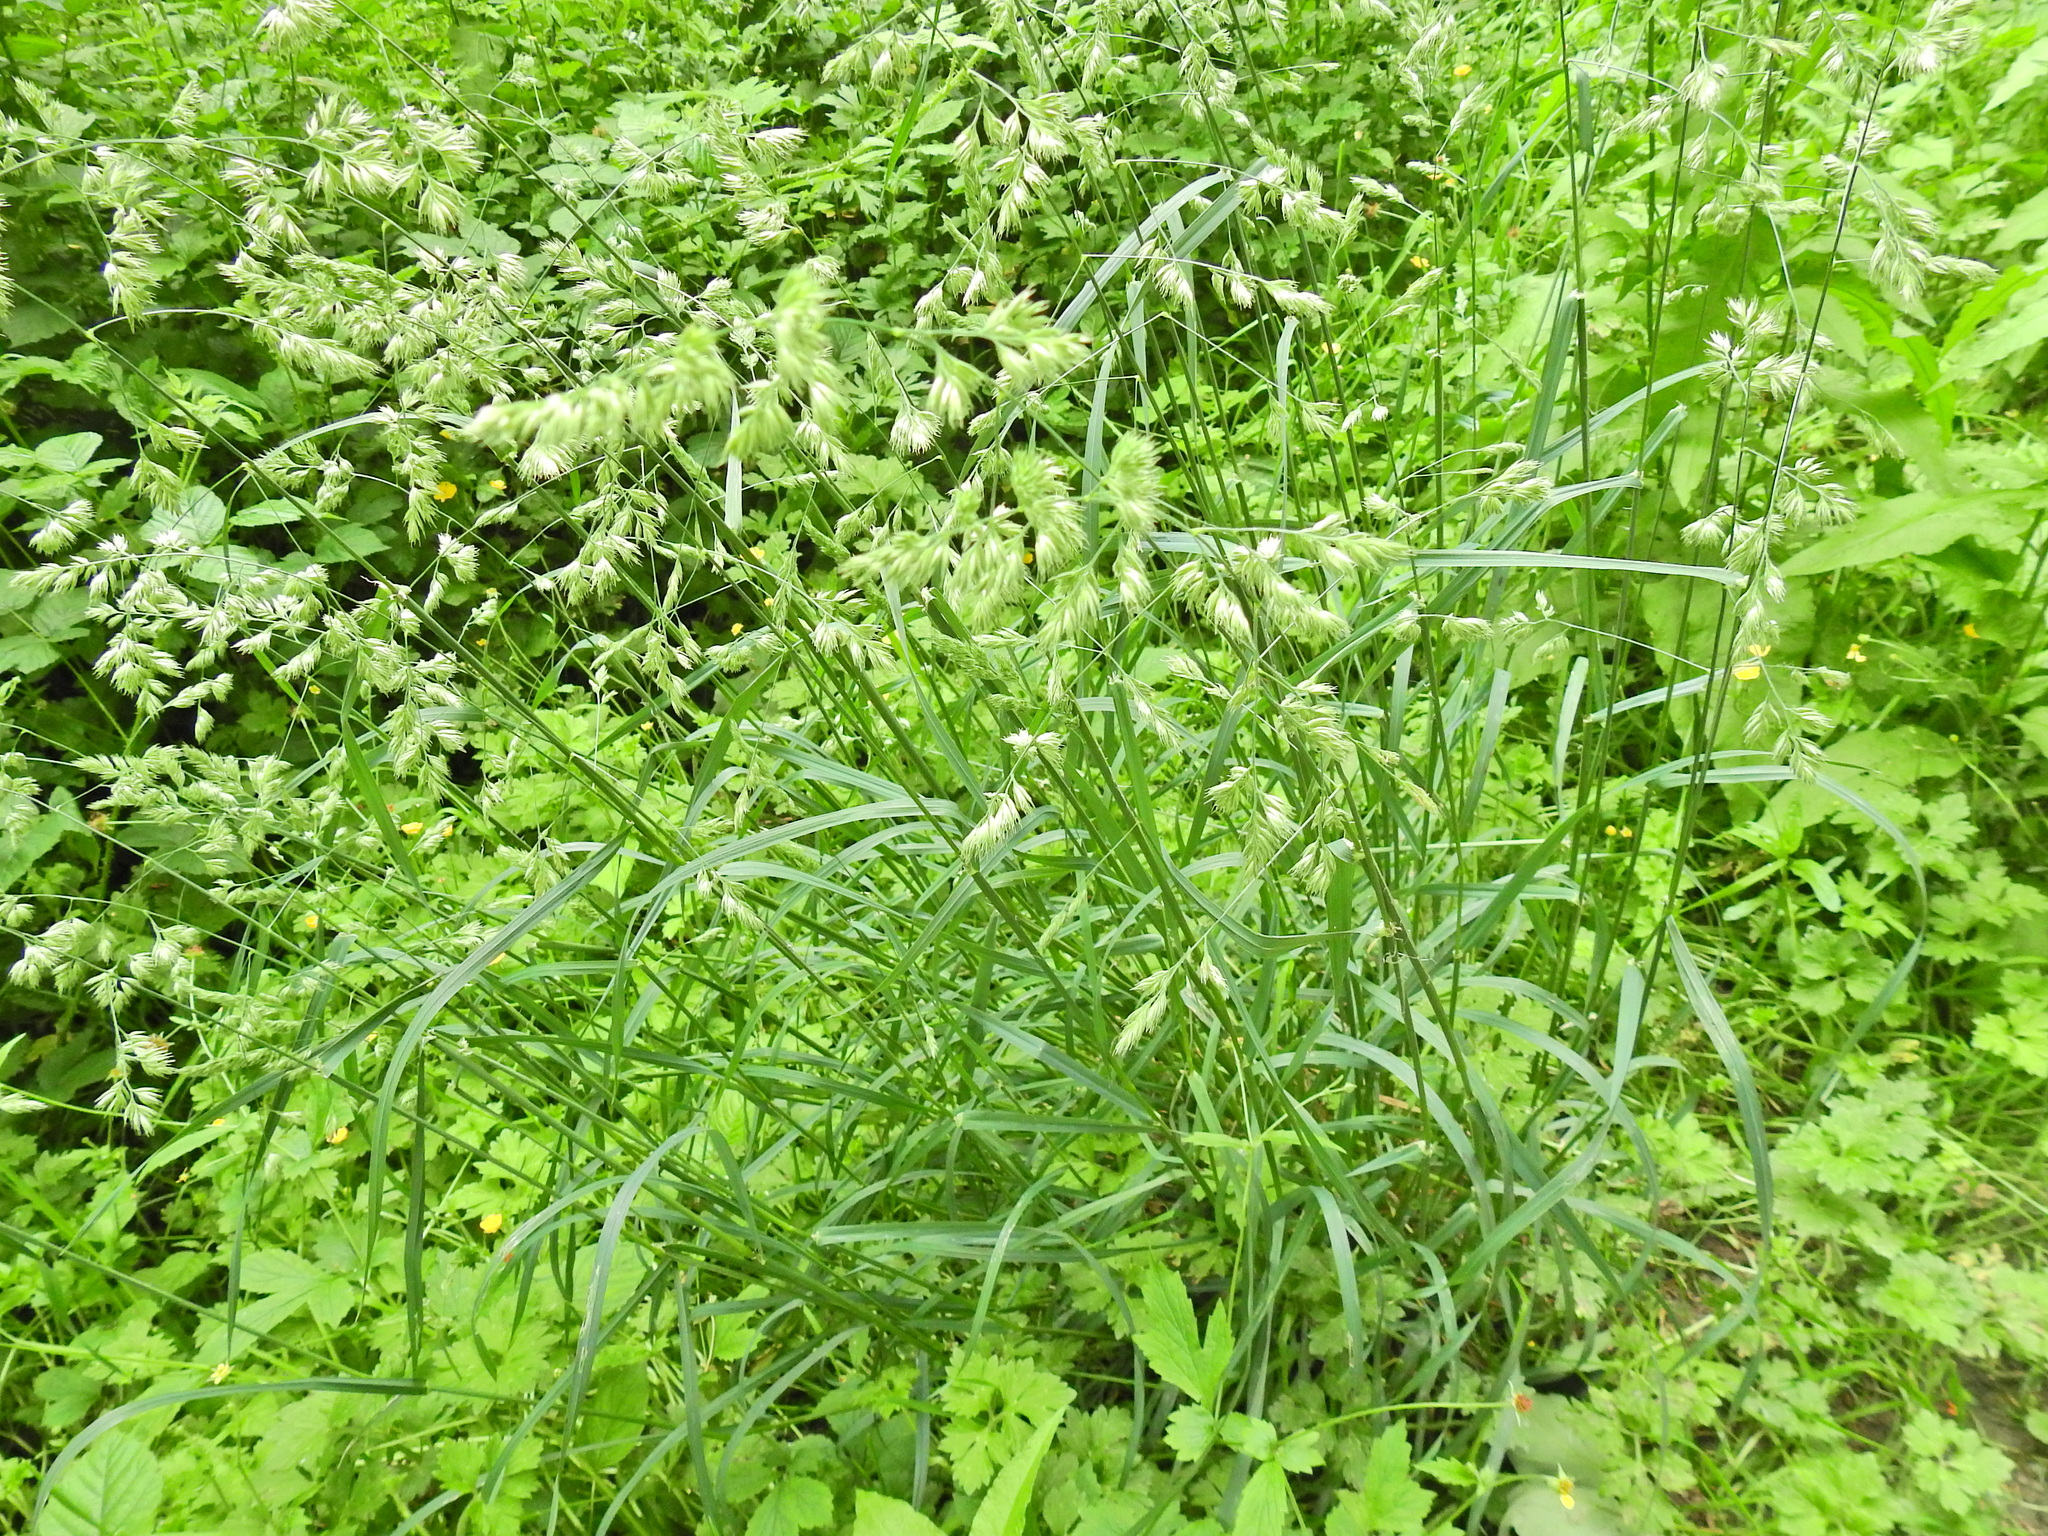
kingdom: Plantae
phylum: Tracheophyta
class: Liliopsida
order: Poales
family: Poaceae
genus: Dactylis
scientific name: Dactylis glomerata
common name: Orchardgrass
